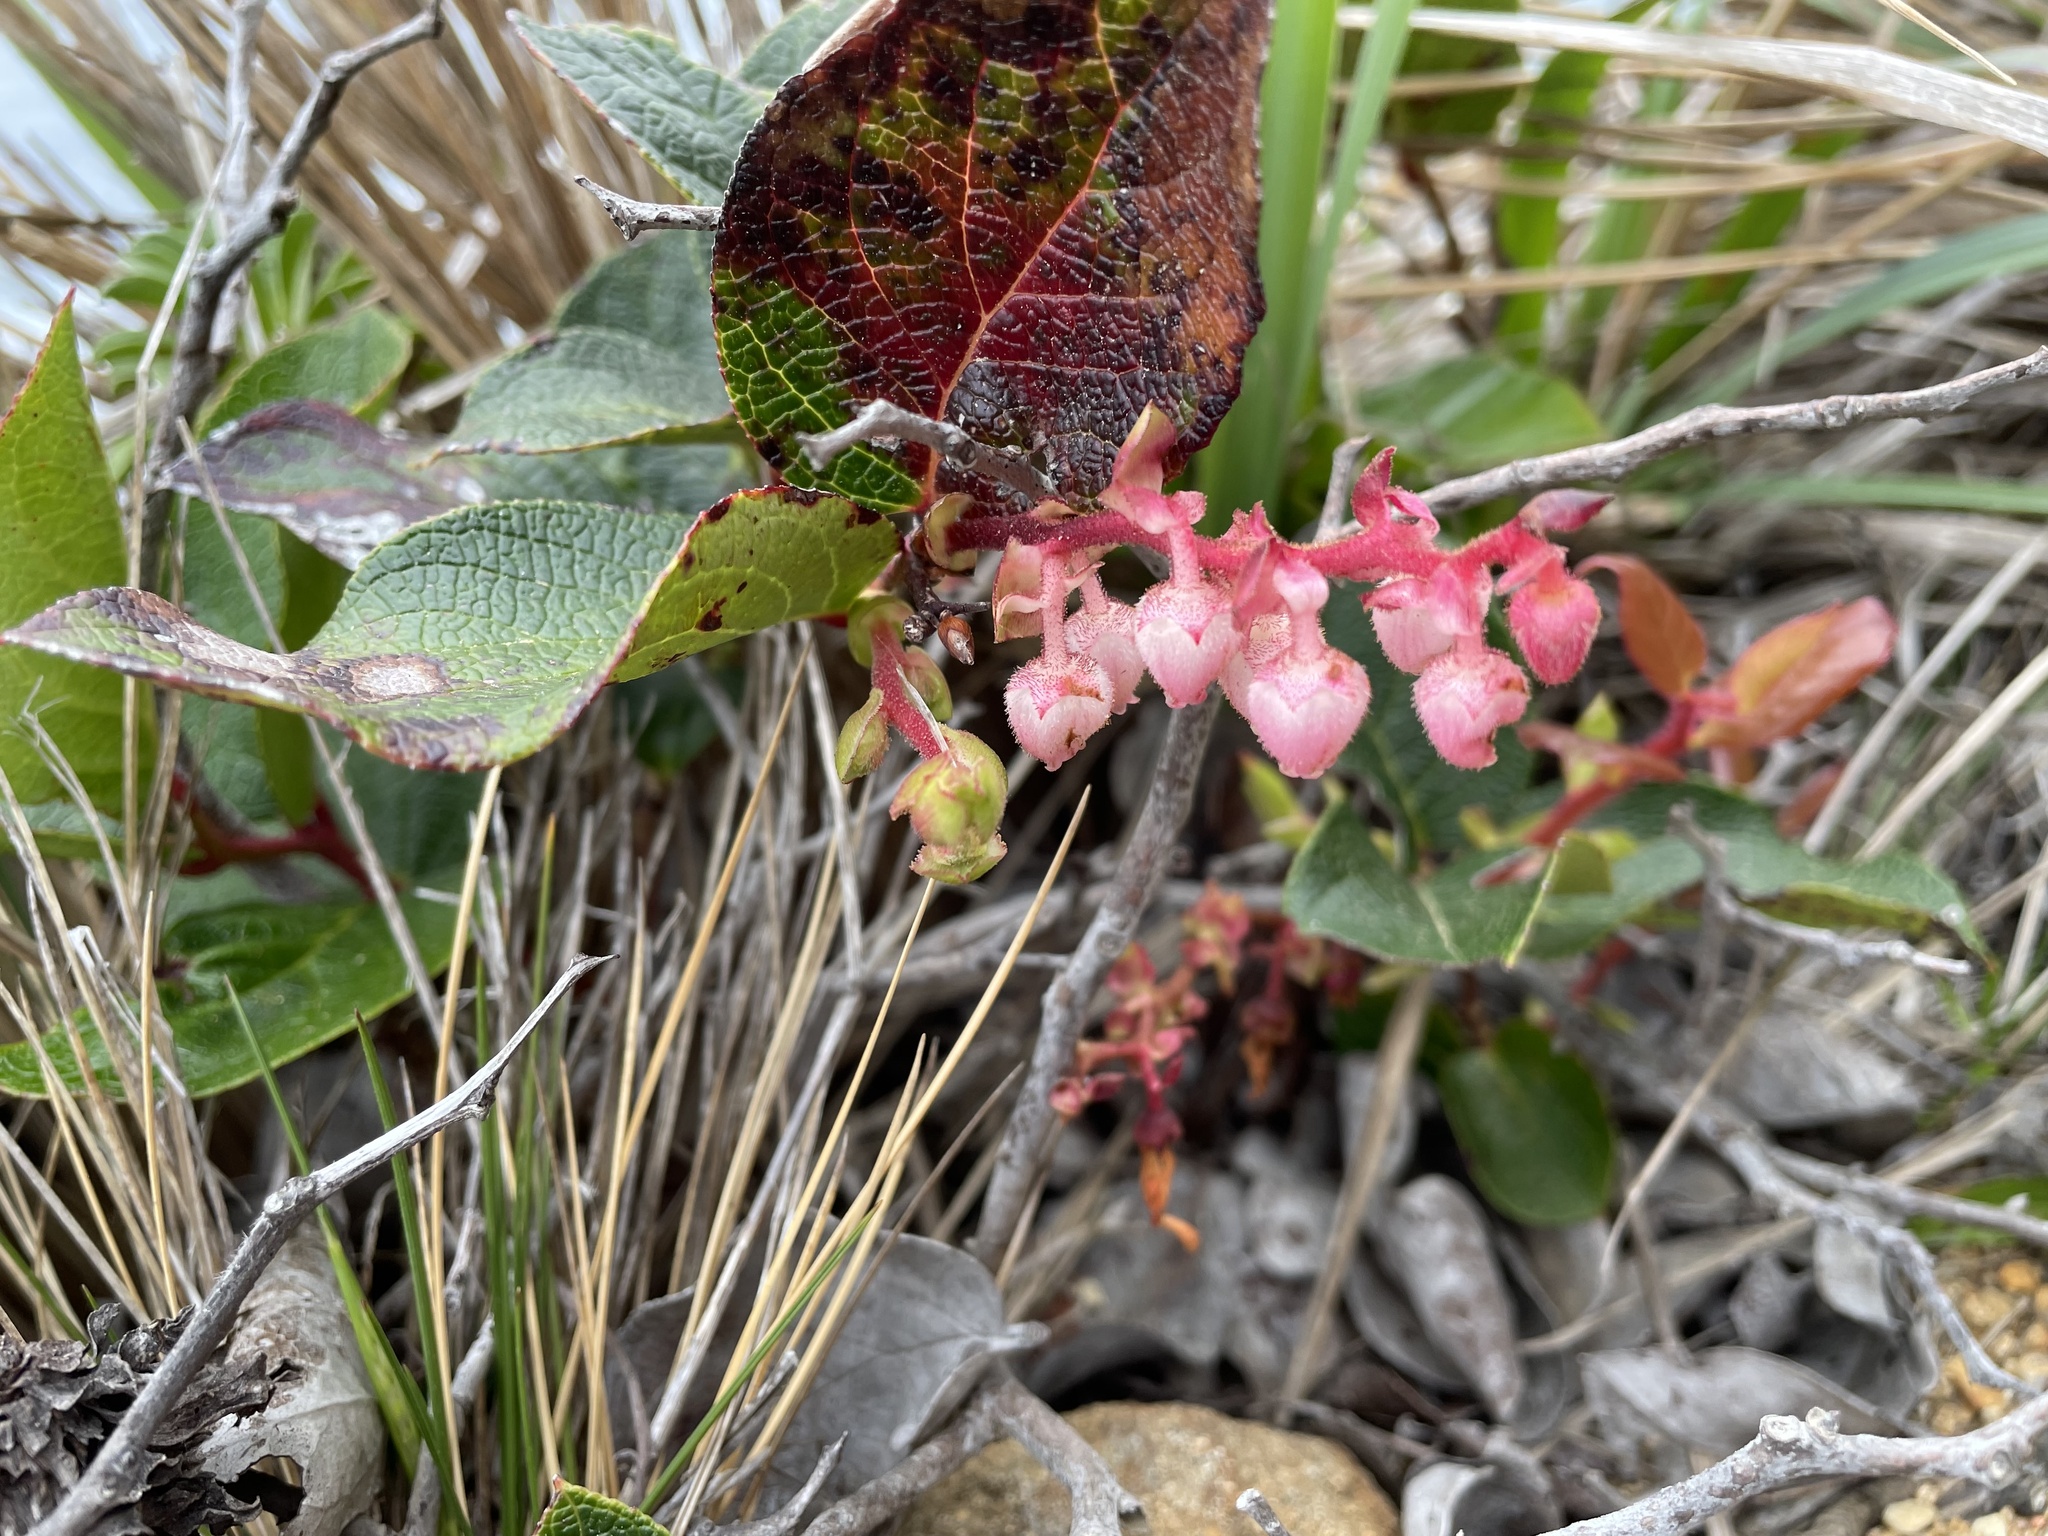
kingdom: Plantae
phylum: Tracheophyta
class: Magnoliopsida
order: Ericales
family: Ericaceae
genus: Gaultheria
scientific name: Gaultheria shallon
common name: Shallon
